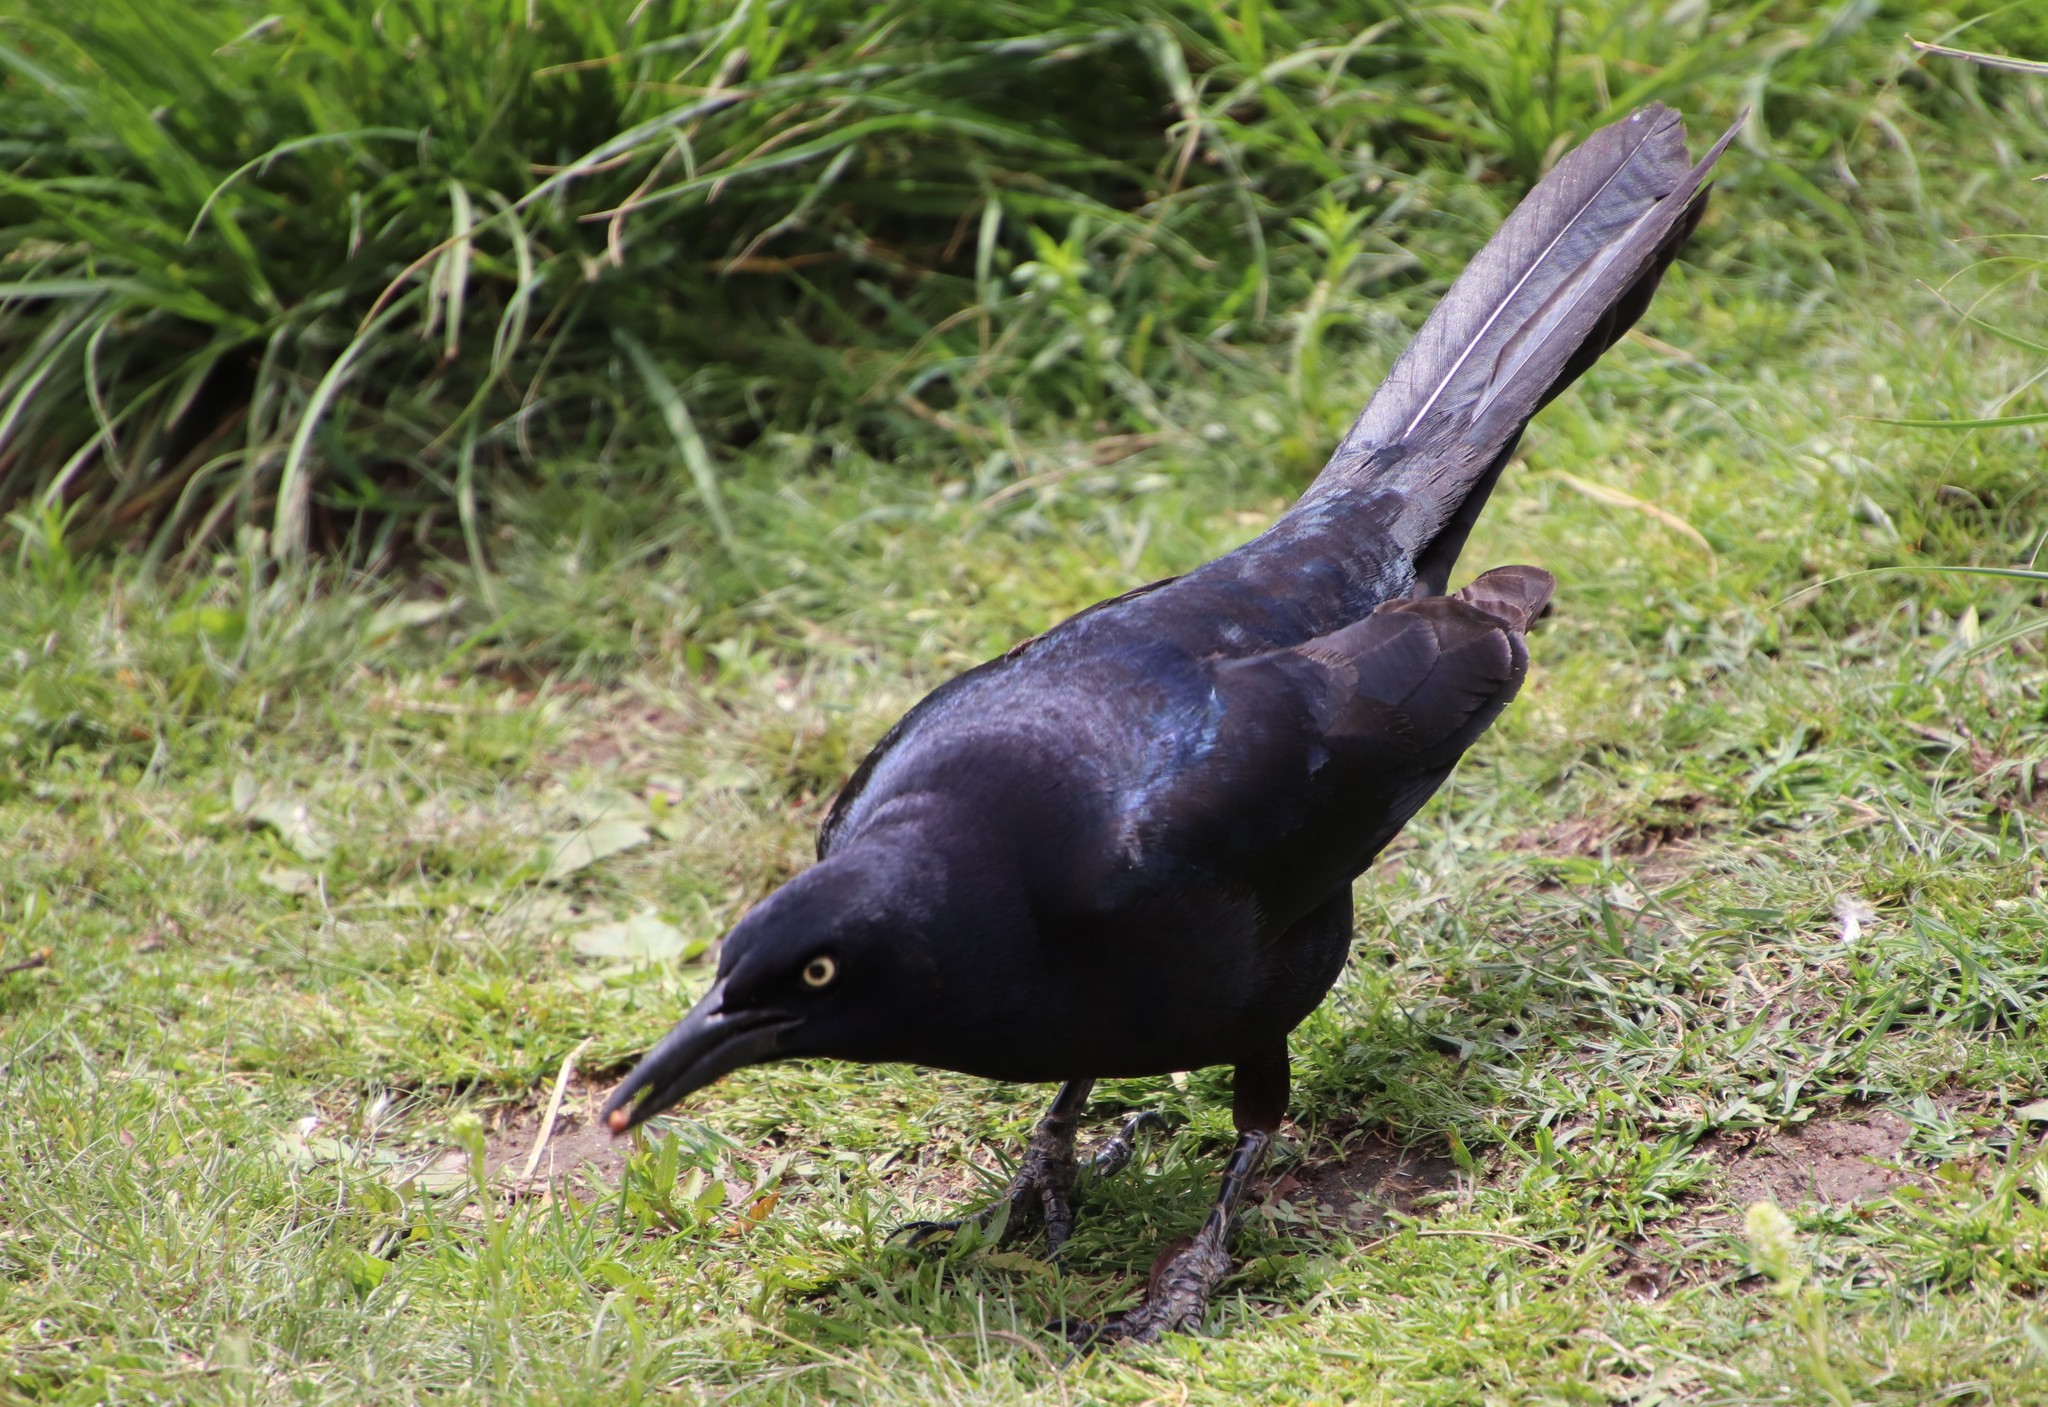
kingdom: Animalia
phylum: Chordata
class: Aves
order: Passeriformes
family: Icteridae
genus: Quiscalus
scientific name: Quiscalus mexicanus
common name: Great-tailed grackle
